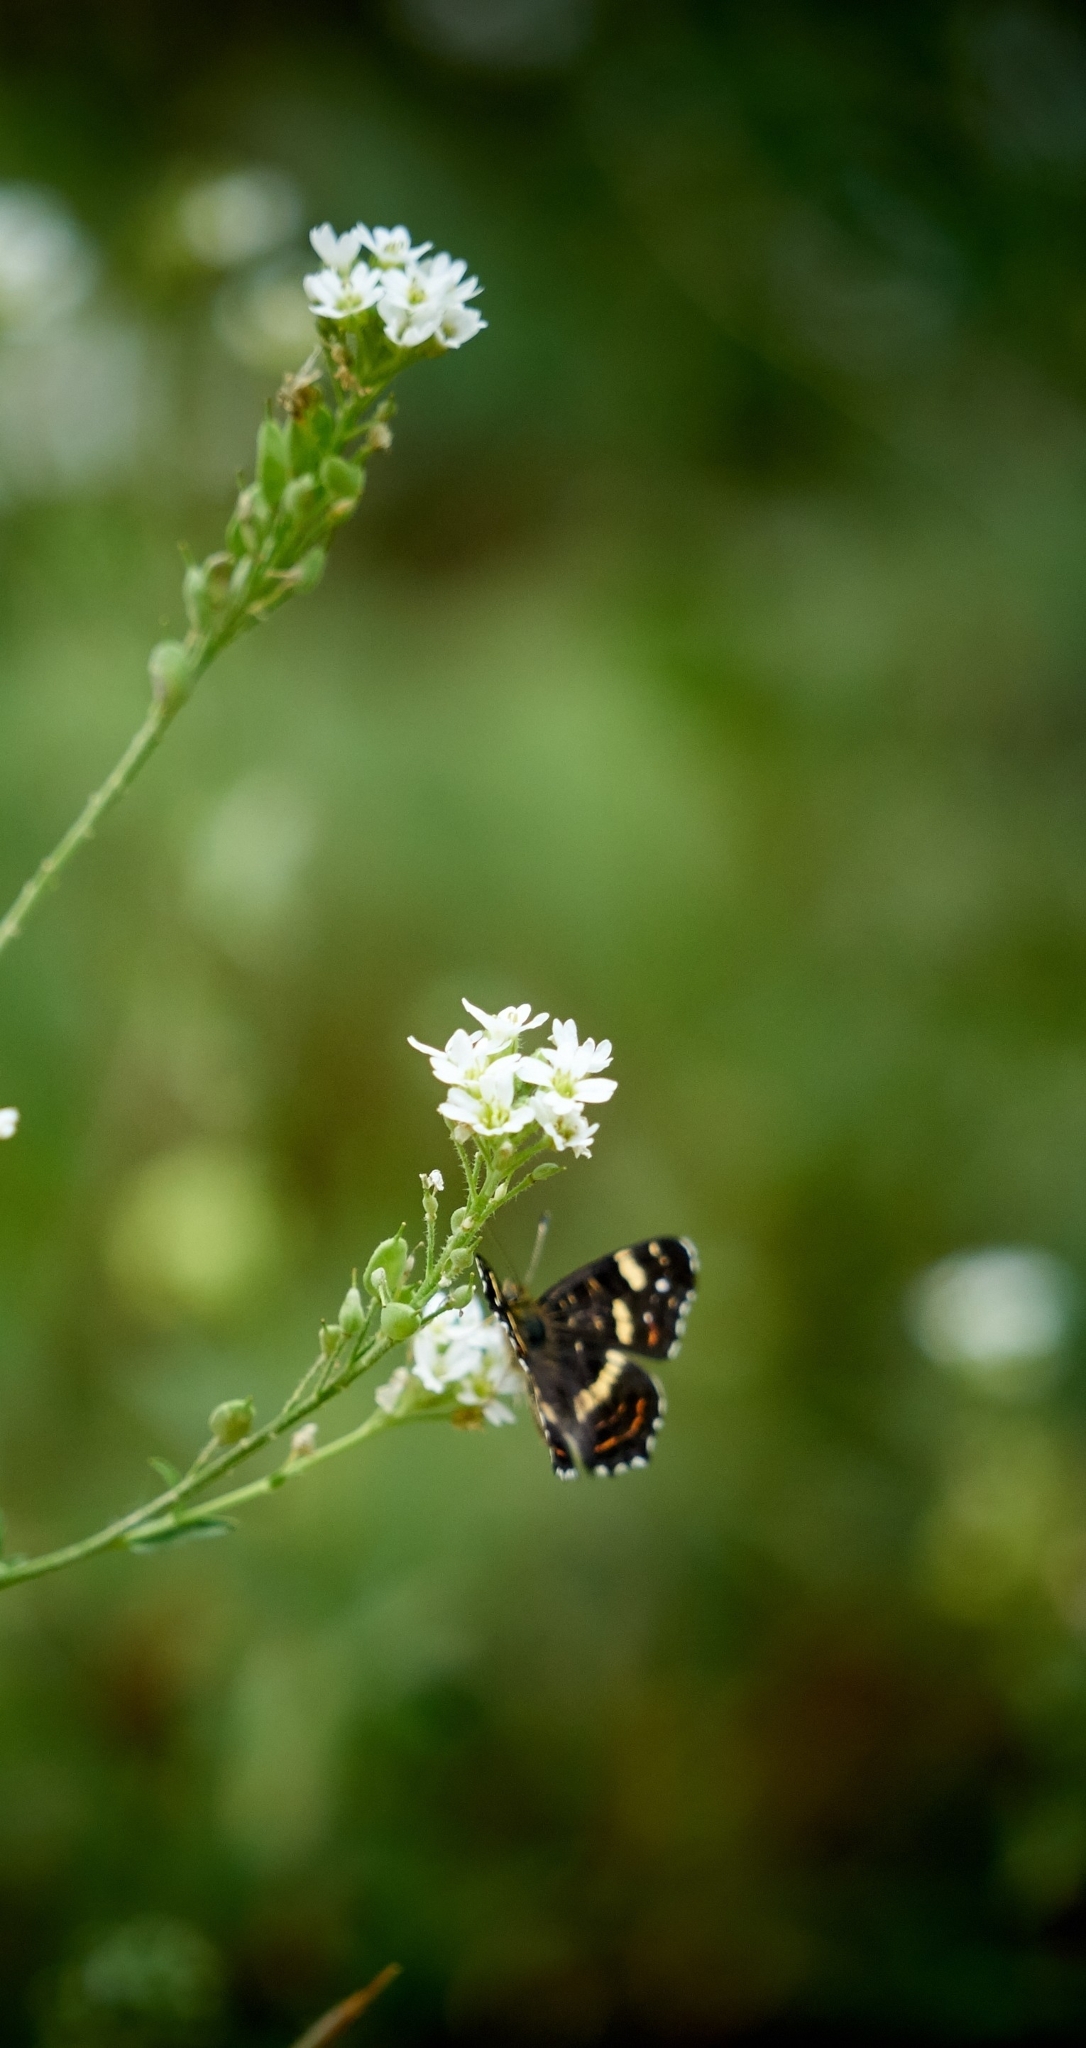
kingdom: Animalia
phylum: Arthropoda
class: Insecta
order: Lepidoptera
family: Nymphalidae
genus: Araschnia
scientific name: Araschnia levana
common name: Map butterfly
